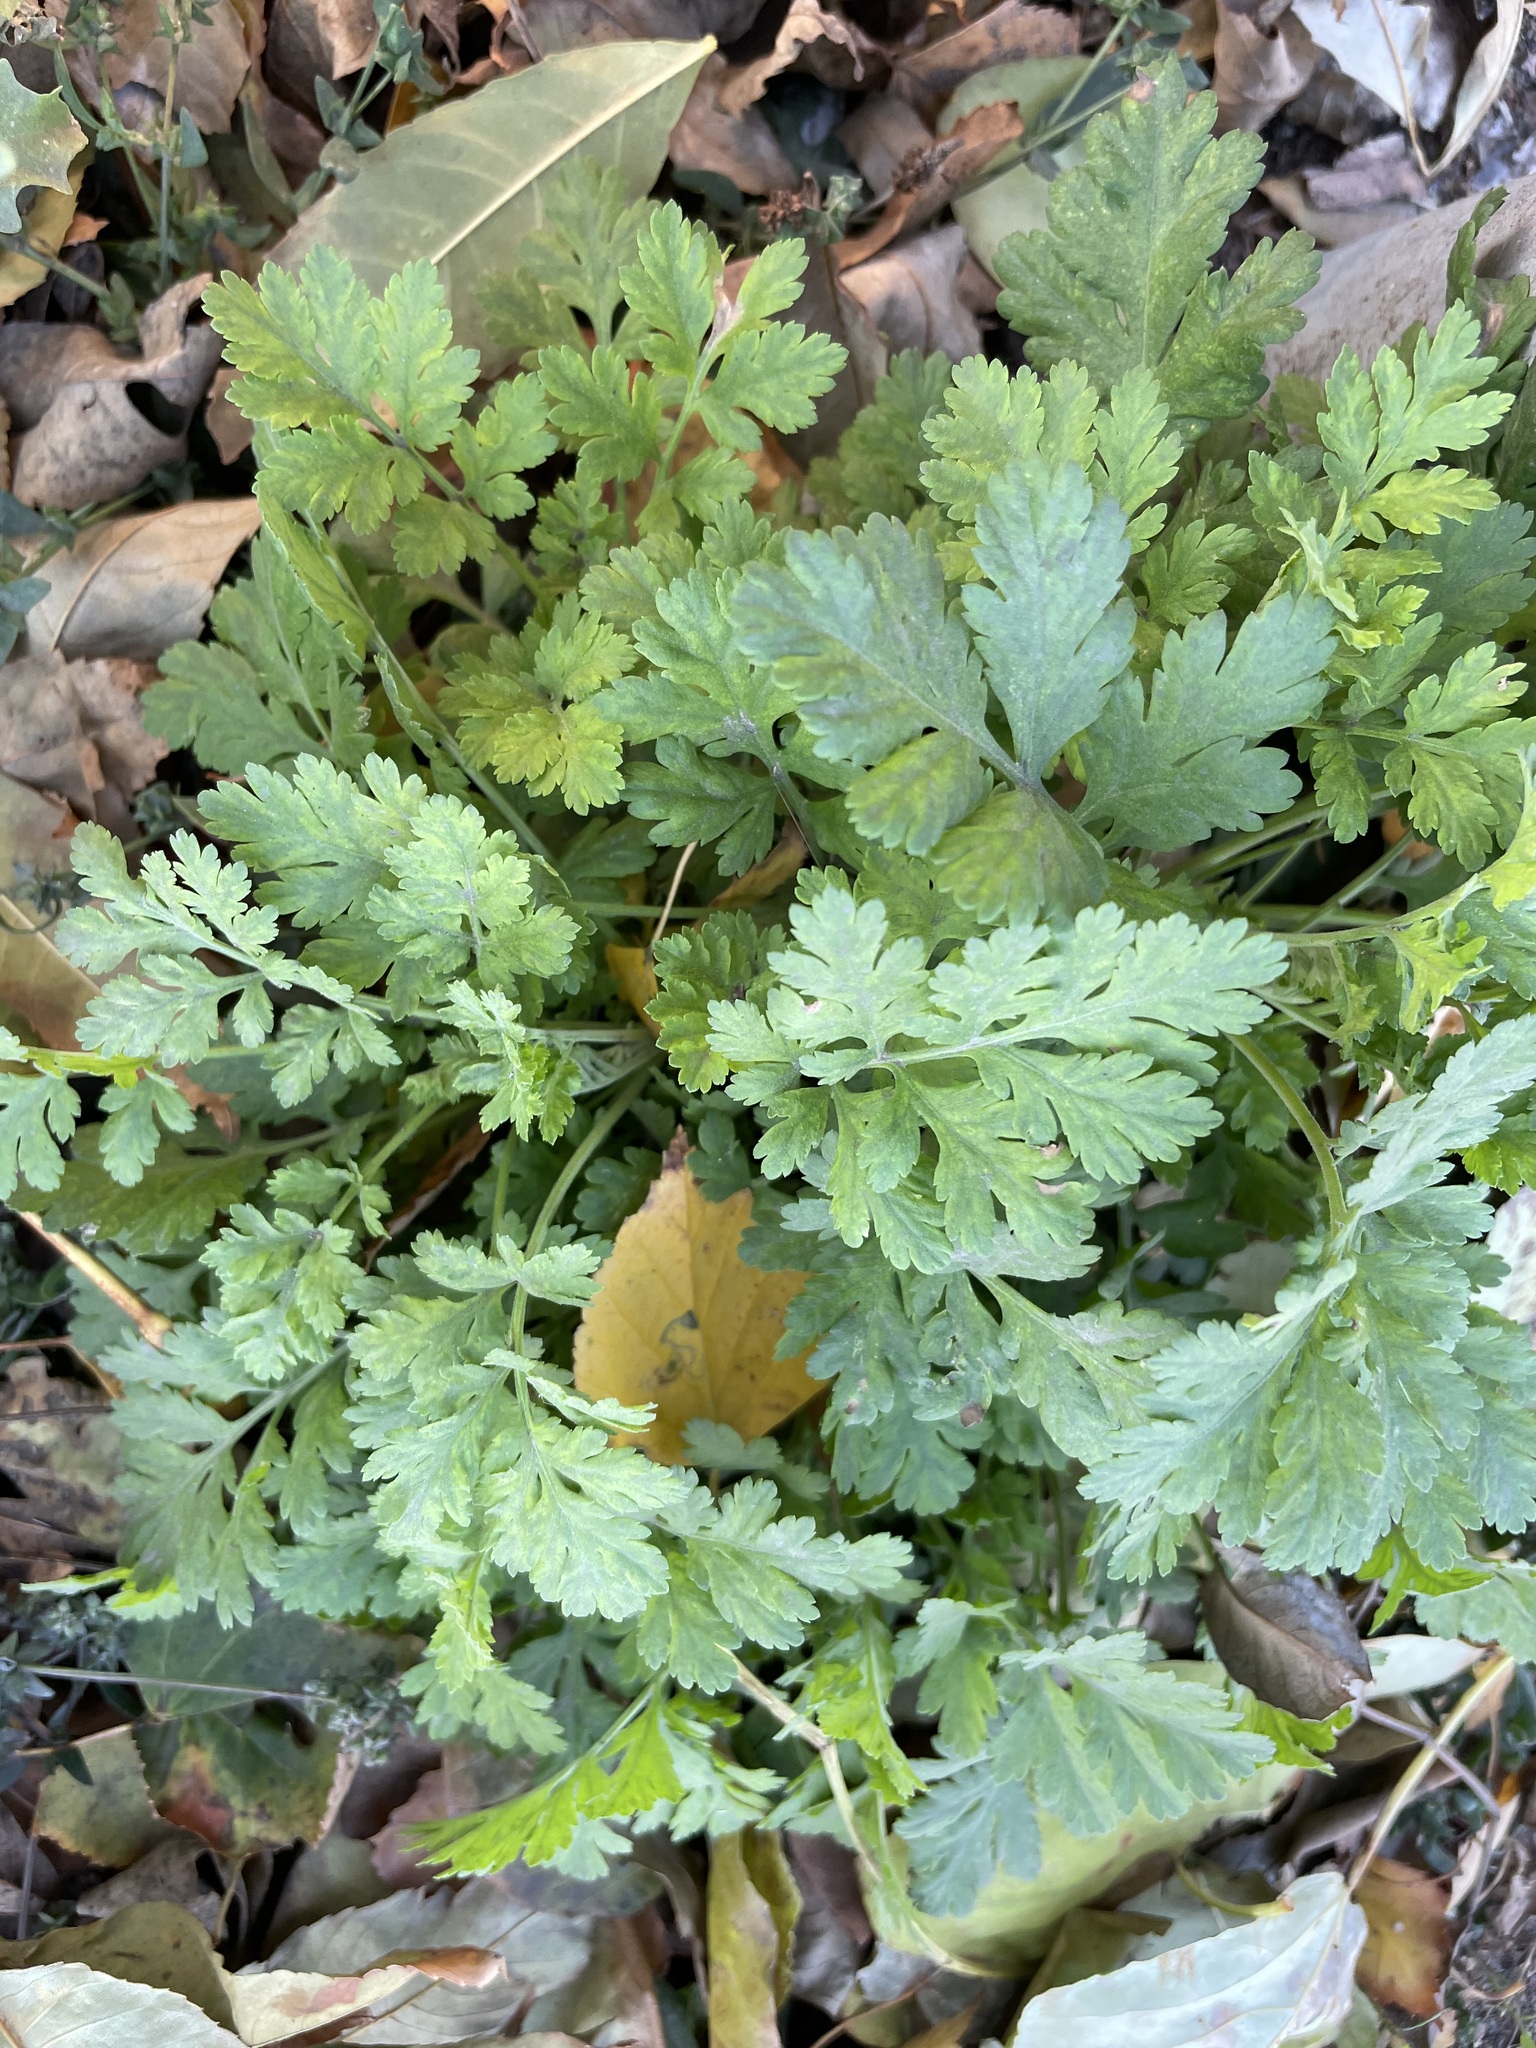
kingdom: Plantae
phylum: Tracheophyta
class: Magnoliopsida
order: Asterales
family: Asteraceae
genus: Tanacetum
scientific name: Tanacetum parthenium
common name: Feverfew
